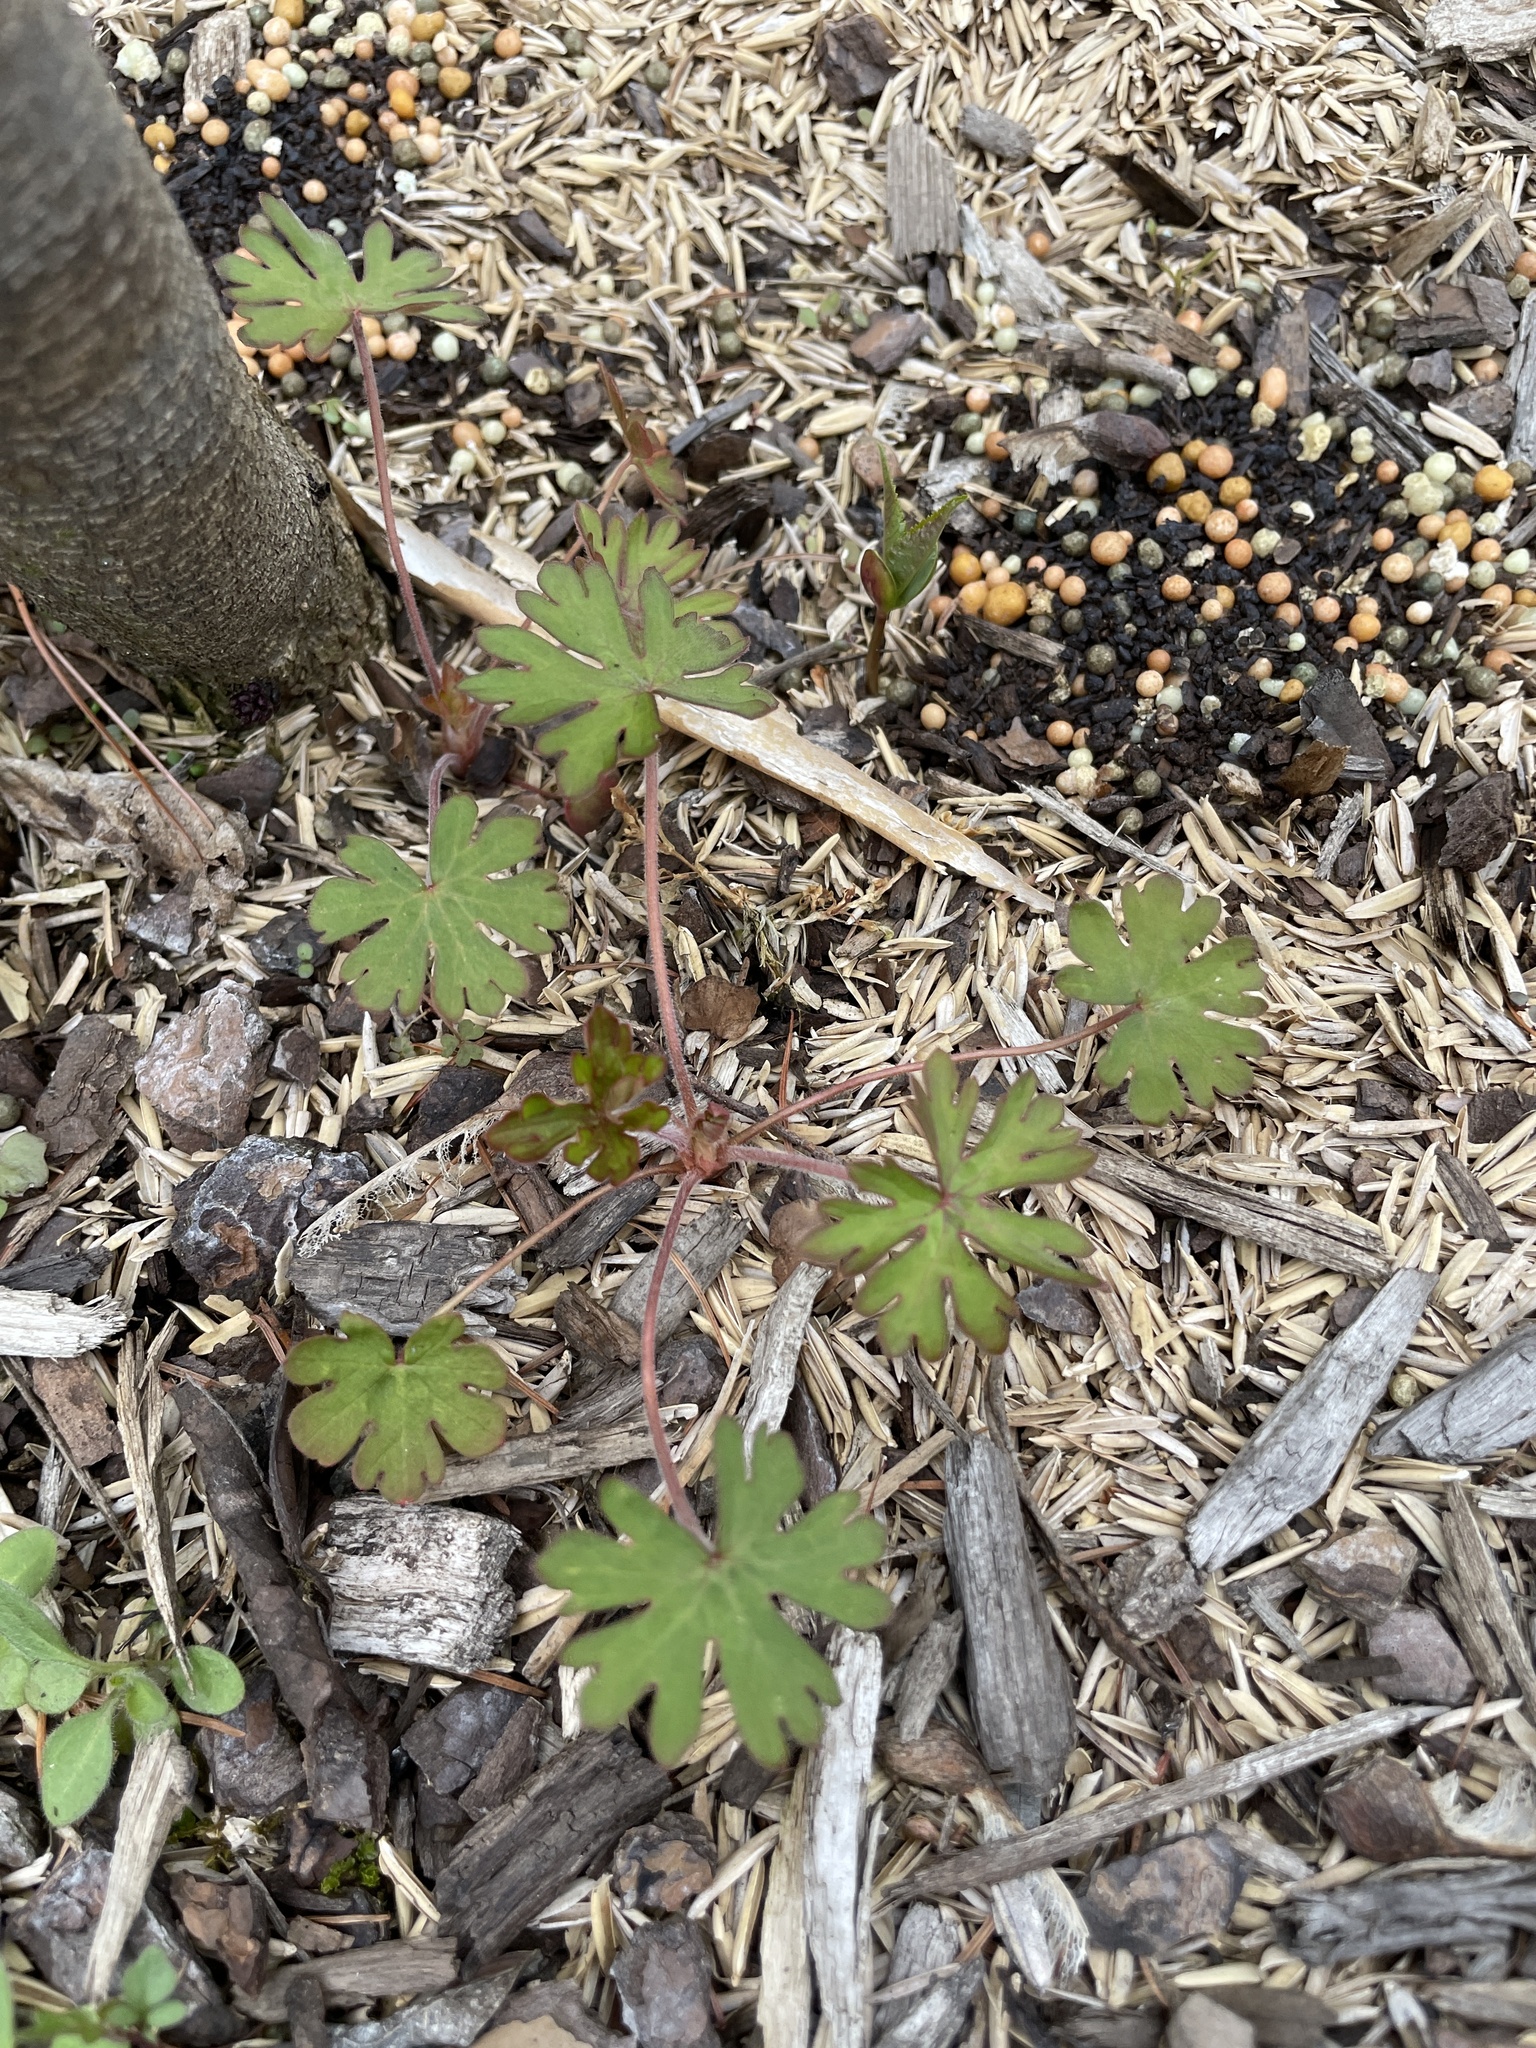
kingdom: Plantae
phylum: Tracheophyta
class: Magnoliopsida
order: Geraniales
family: Geraniaceae
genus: Geranium
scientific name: Geranium carolinianum
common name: Carolina crane's-bill
